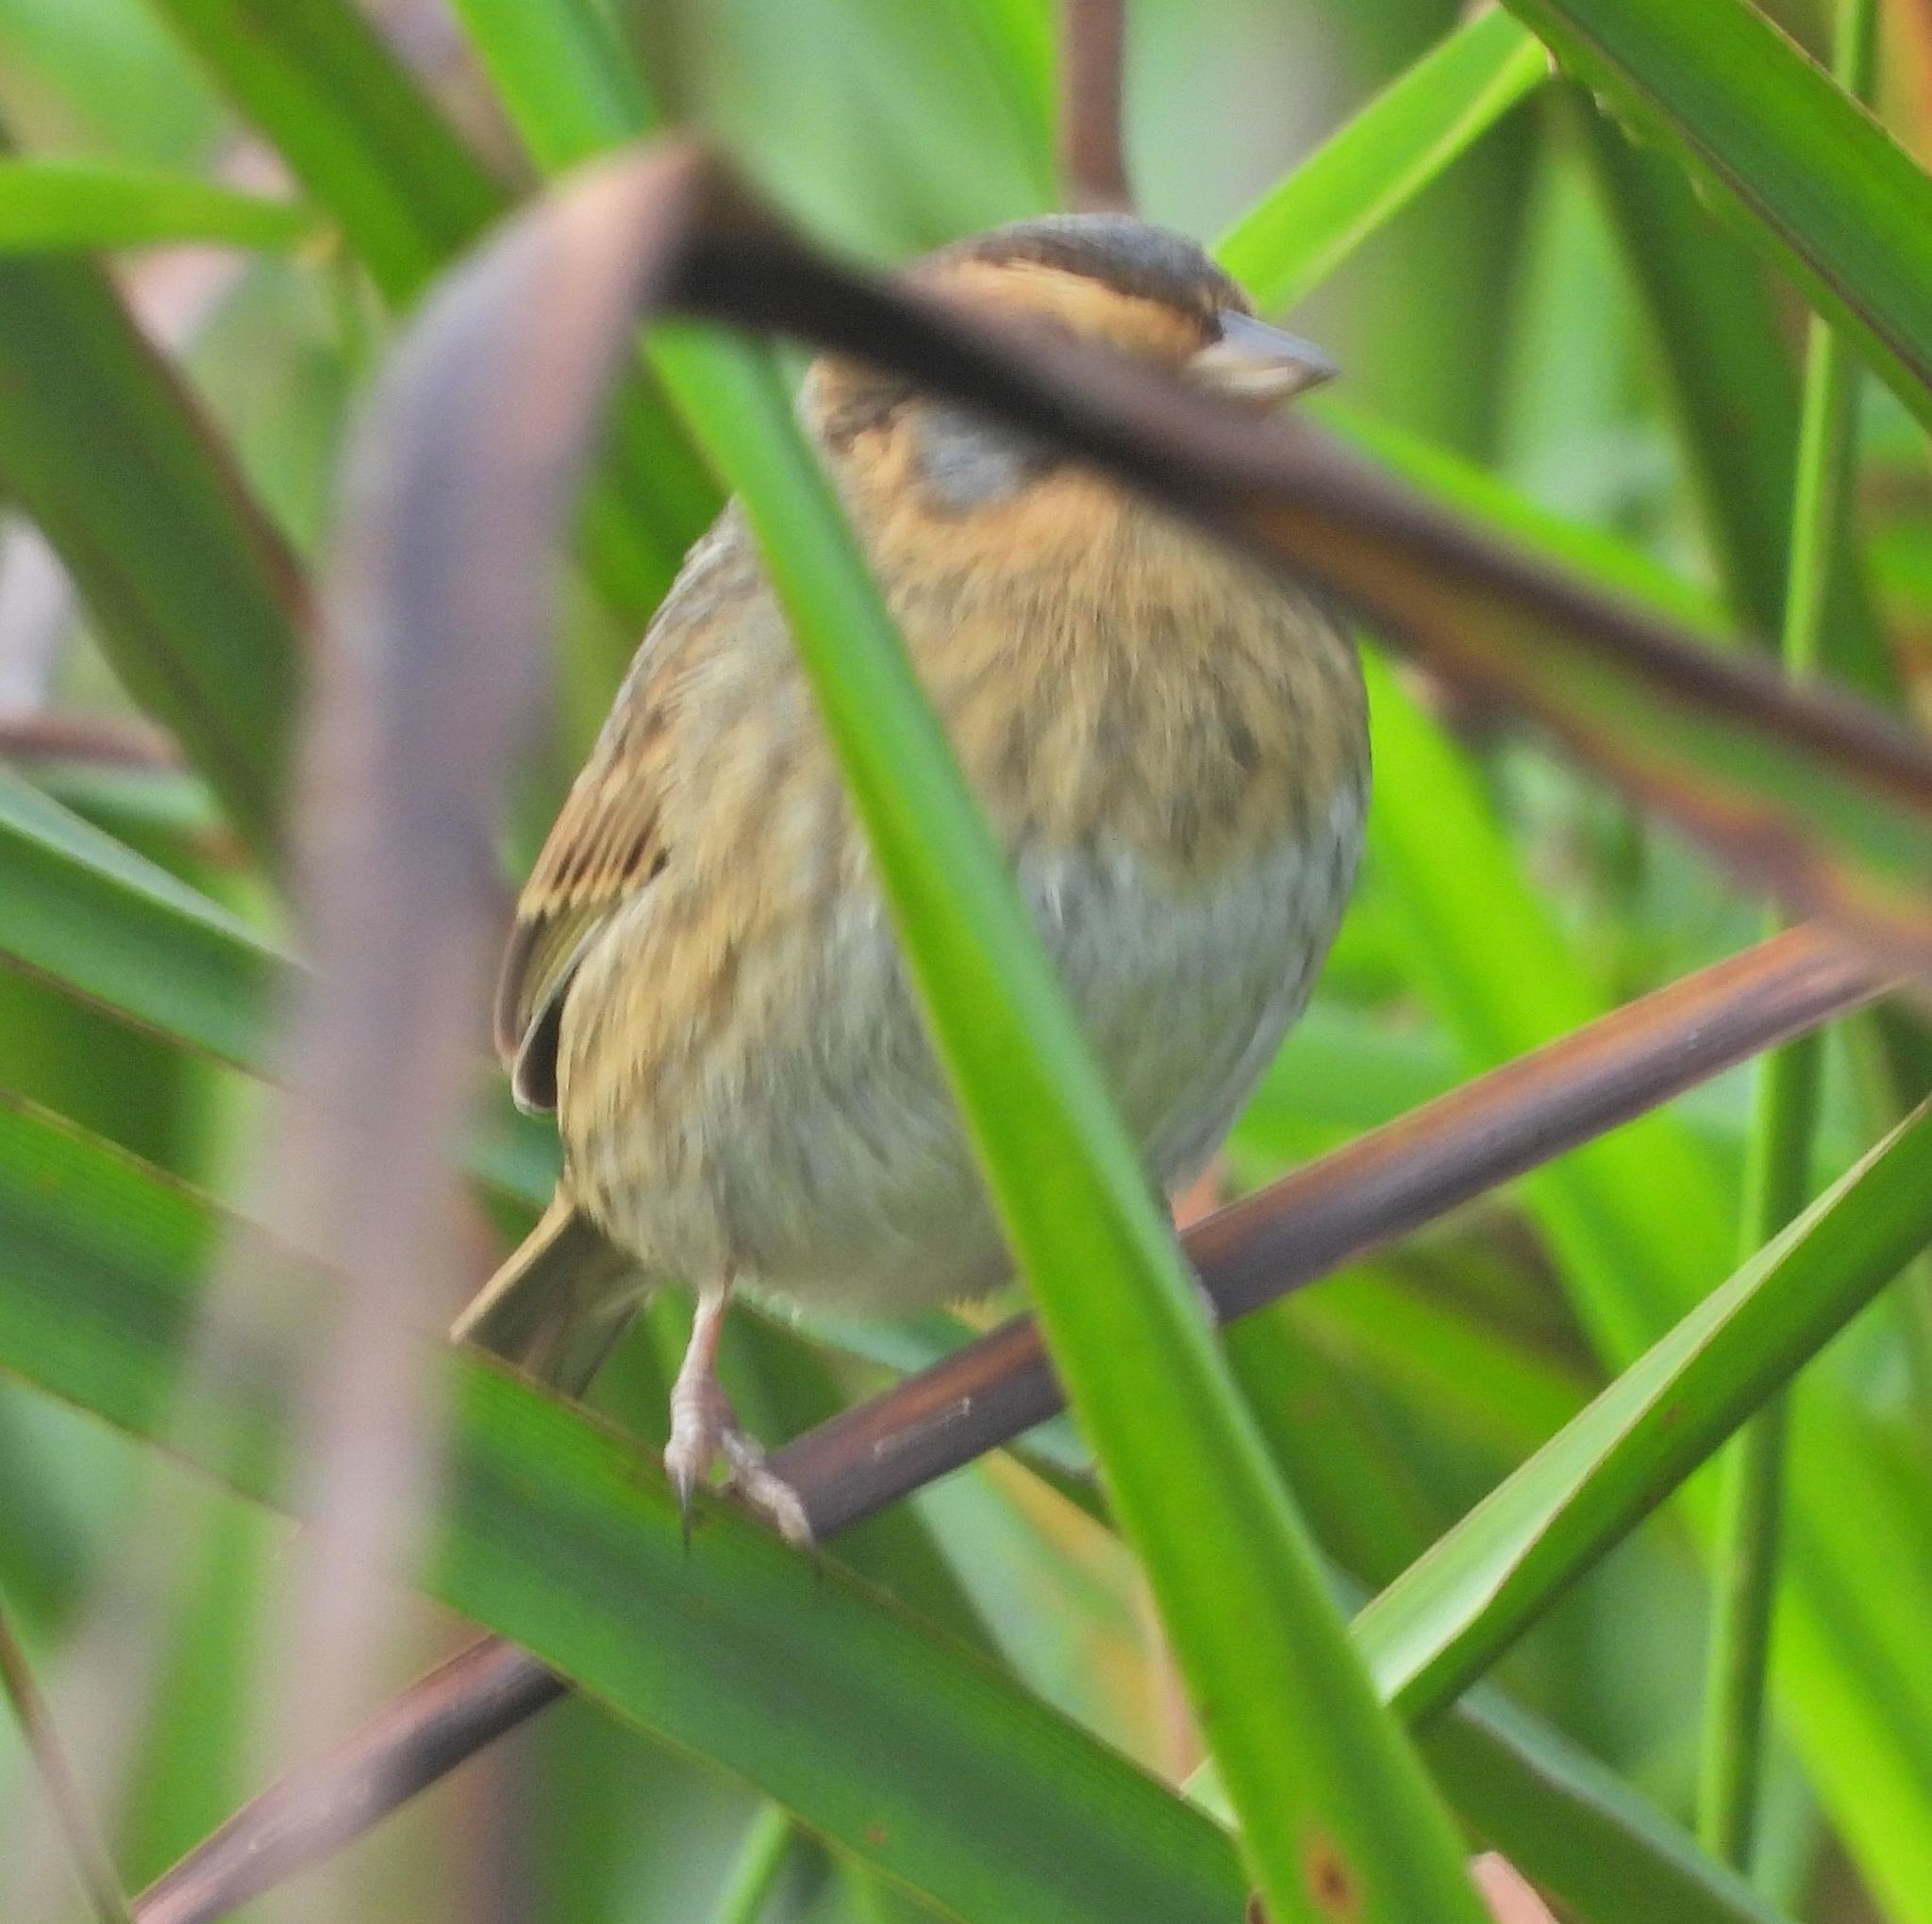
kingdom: Animalia
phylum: Chordata
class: Aves
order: Passeriformes
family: Passerellidae
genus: Ammospiza
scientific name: Ammospiza nelsoni
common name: Nelson's sparrow
